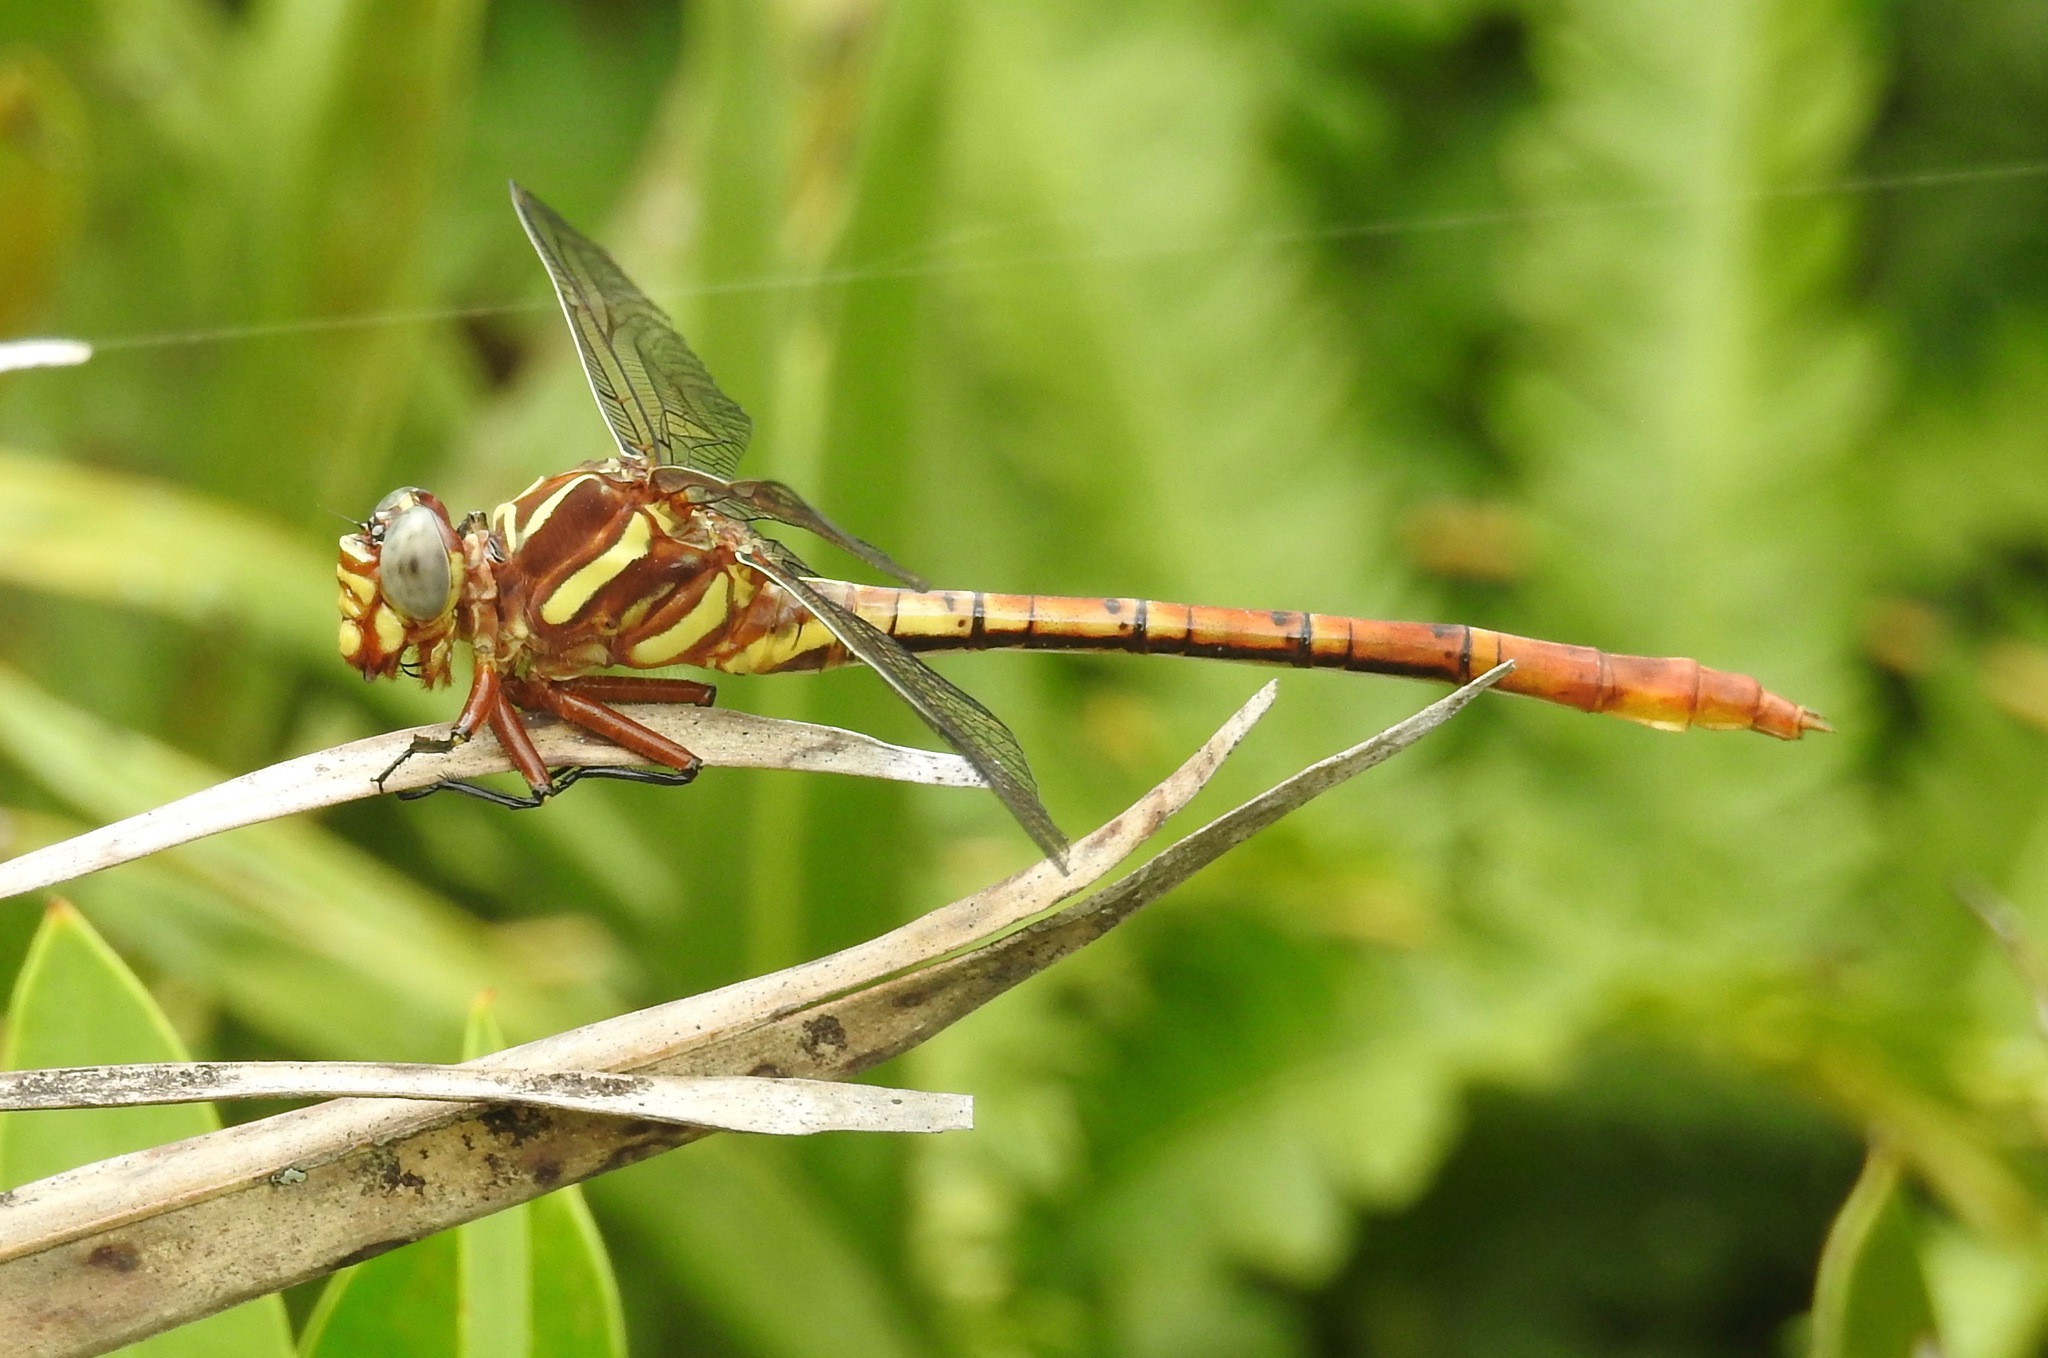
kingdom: Animalia
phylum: Arthropoda
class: Insecta
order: Odonata
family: Gomphidae
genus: Aphylla
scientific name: Aphylla williamsoni
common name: Two-striped forceptail
